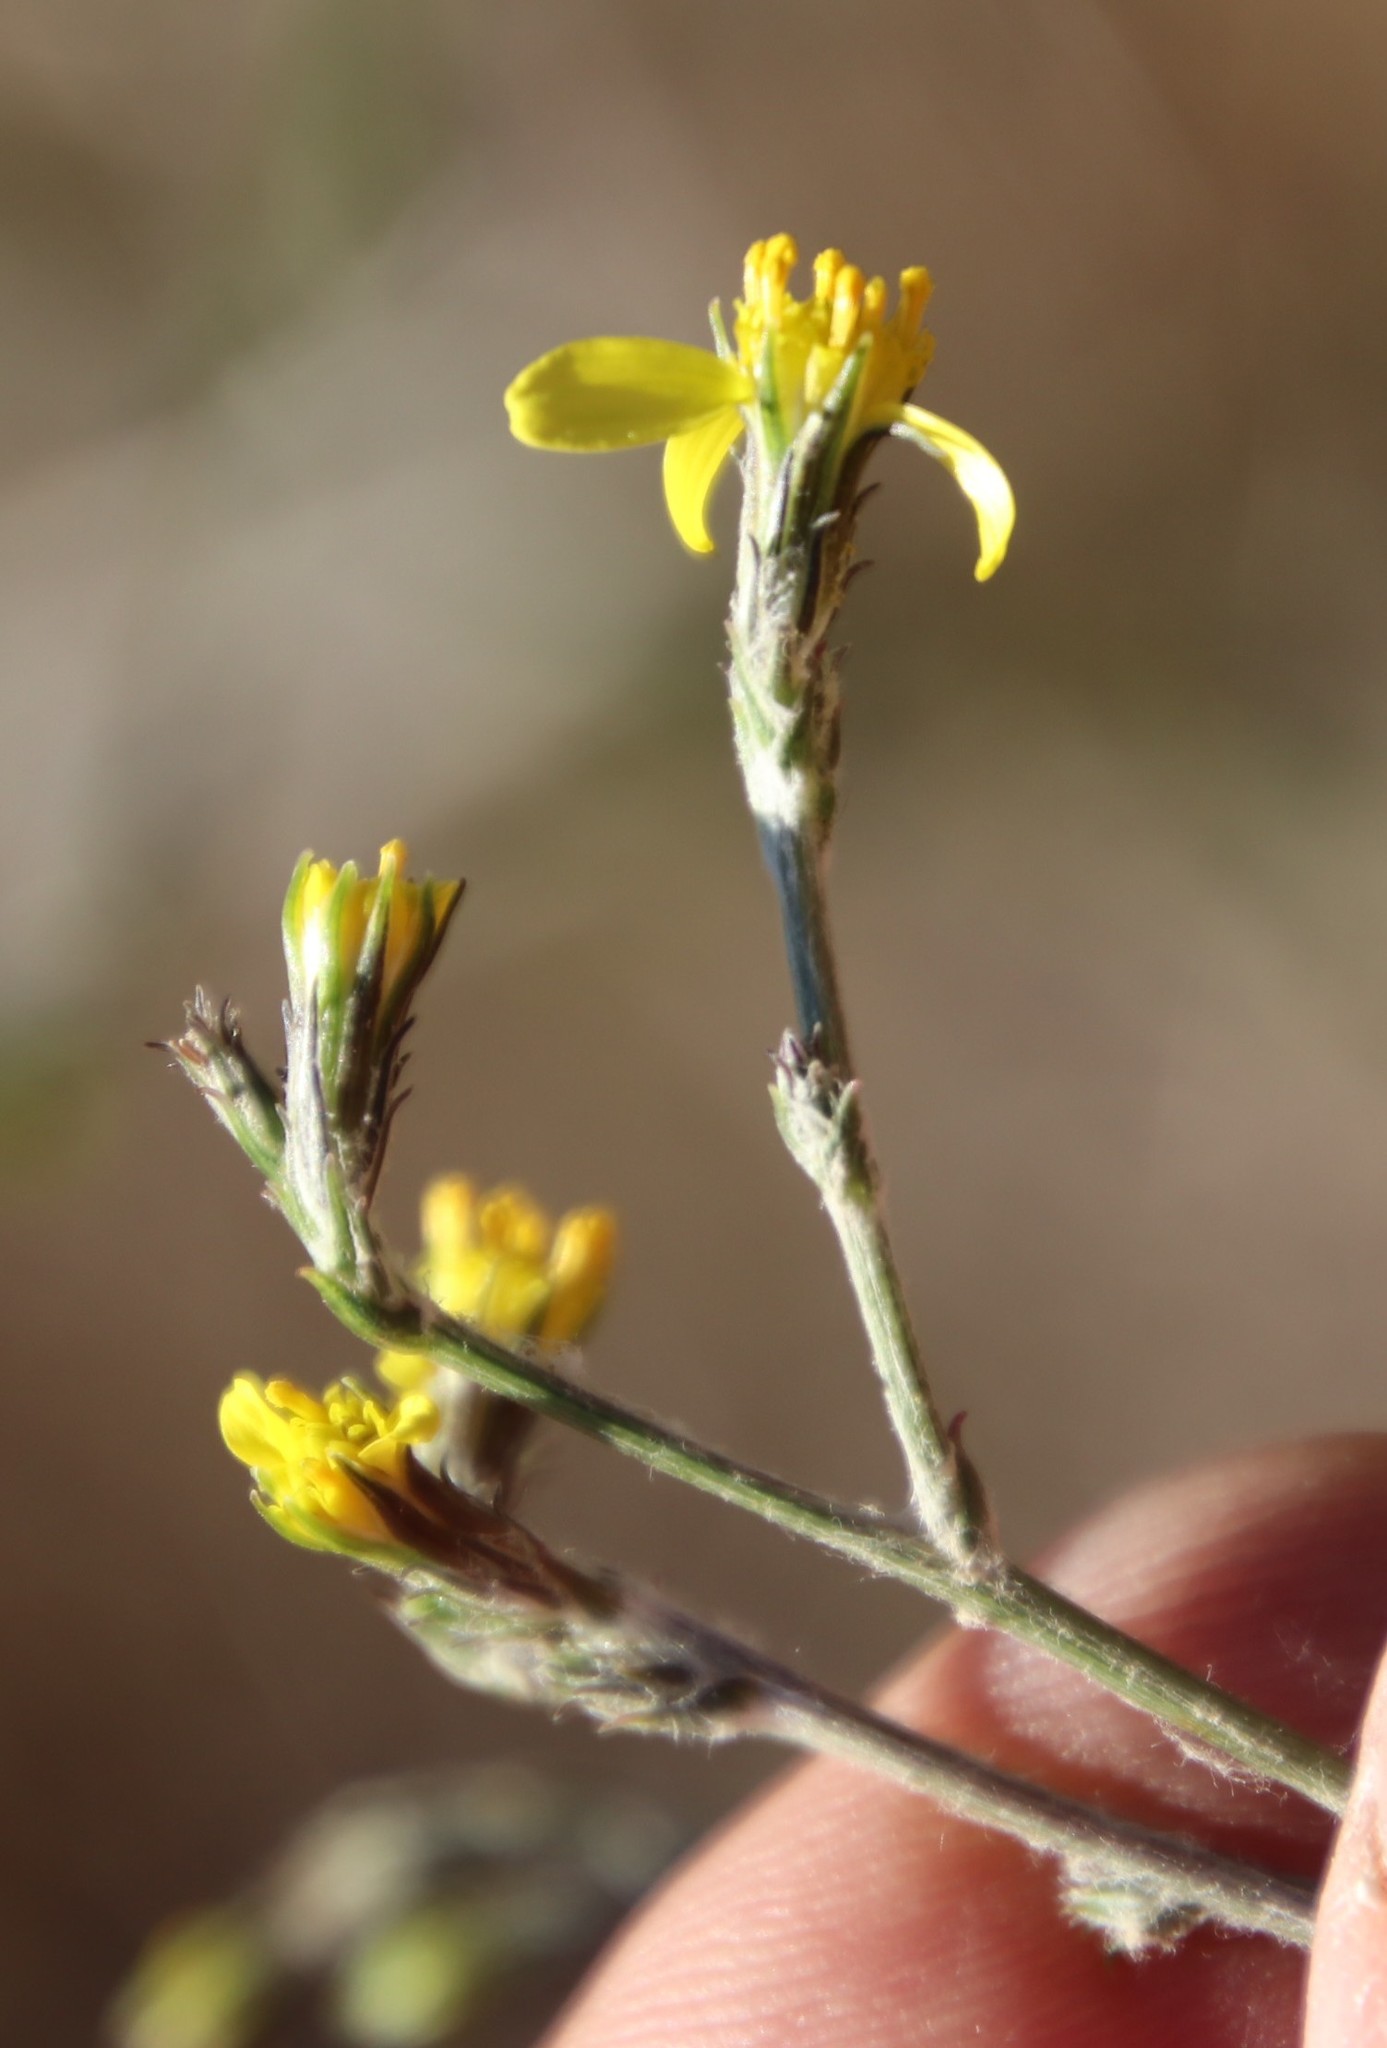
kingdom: Plantae
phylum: Tracheophyta
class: Magnoliopsida
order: Asterales
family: Asteraceae
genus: Senecio
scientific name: Senecio pubigerus
